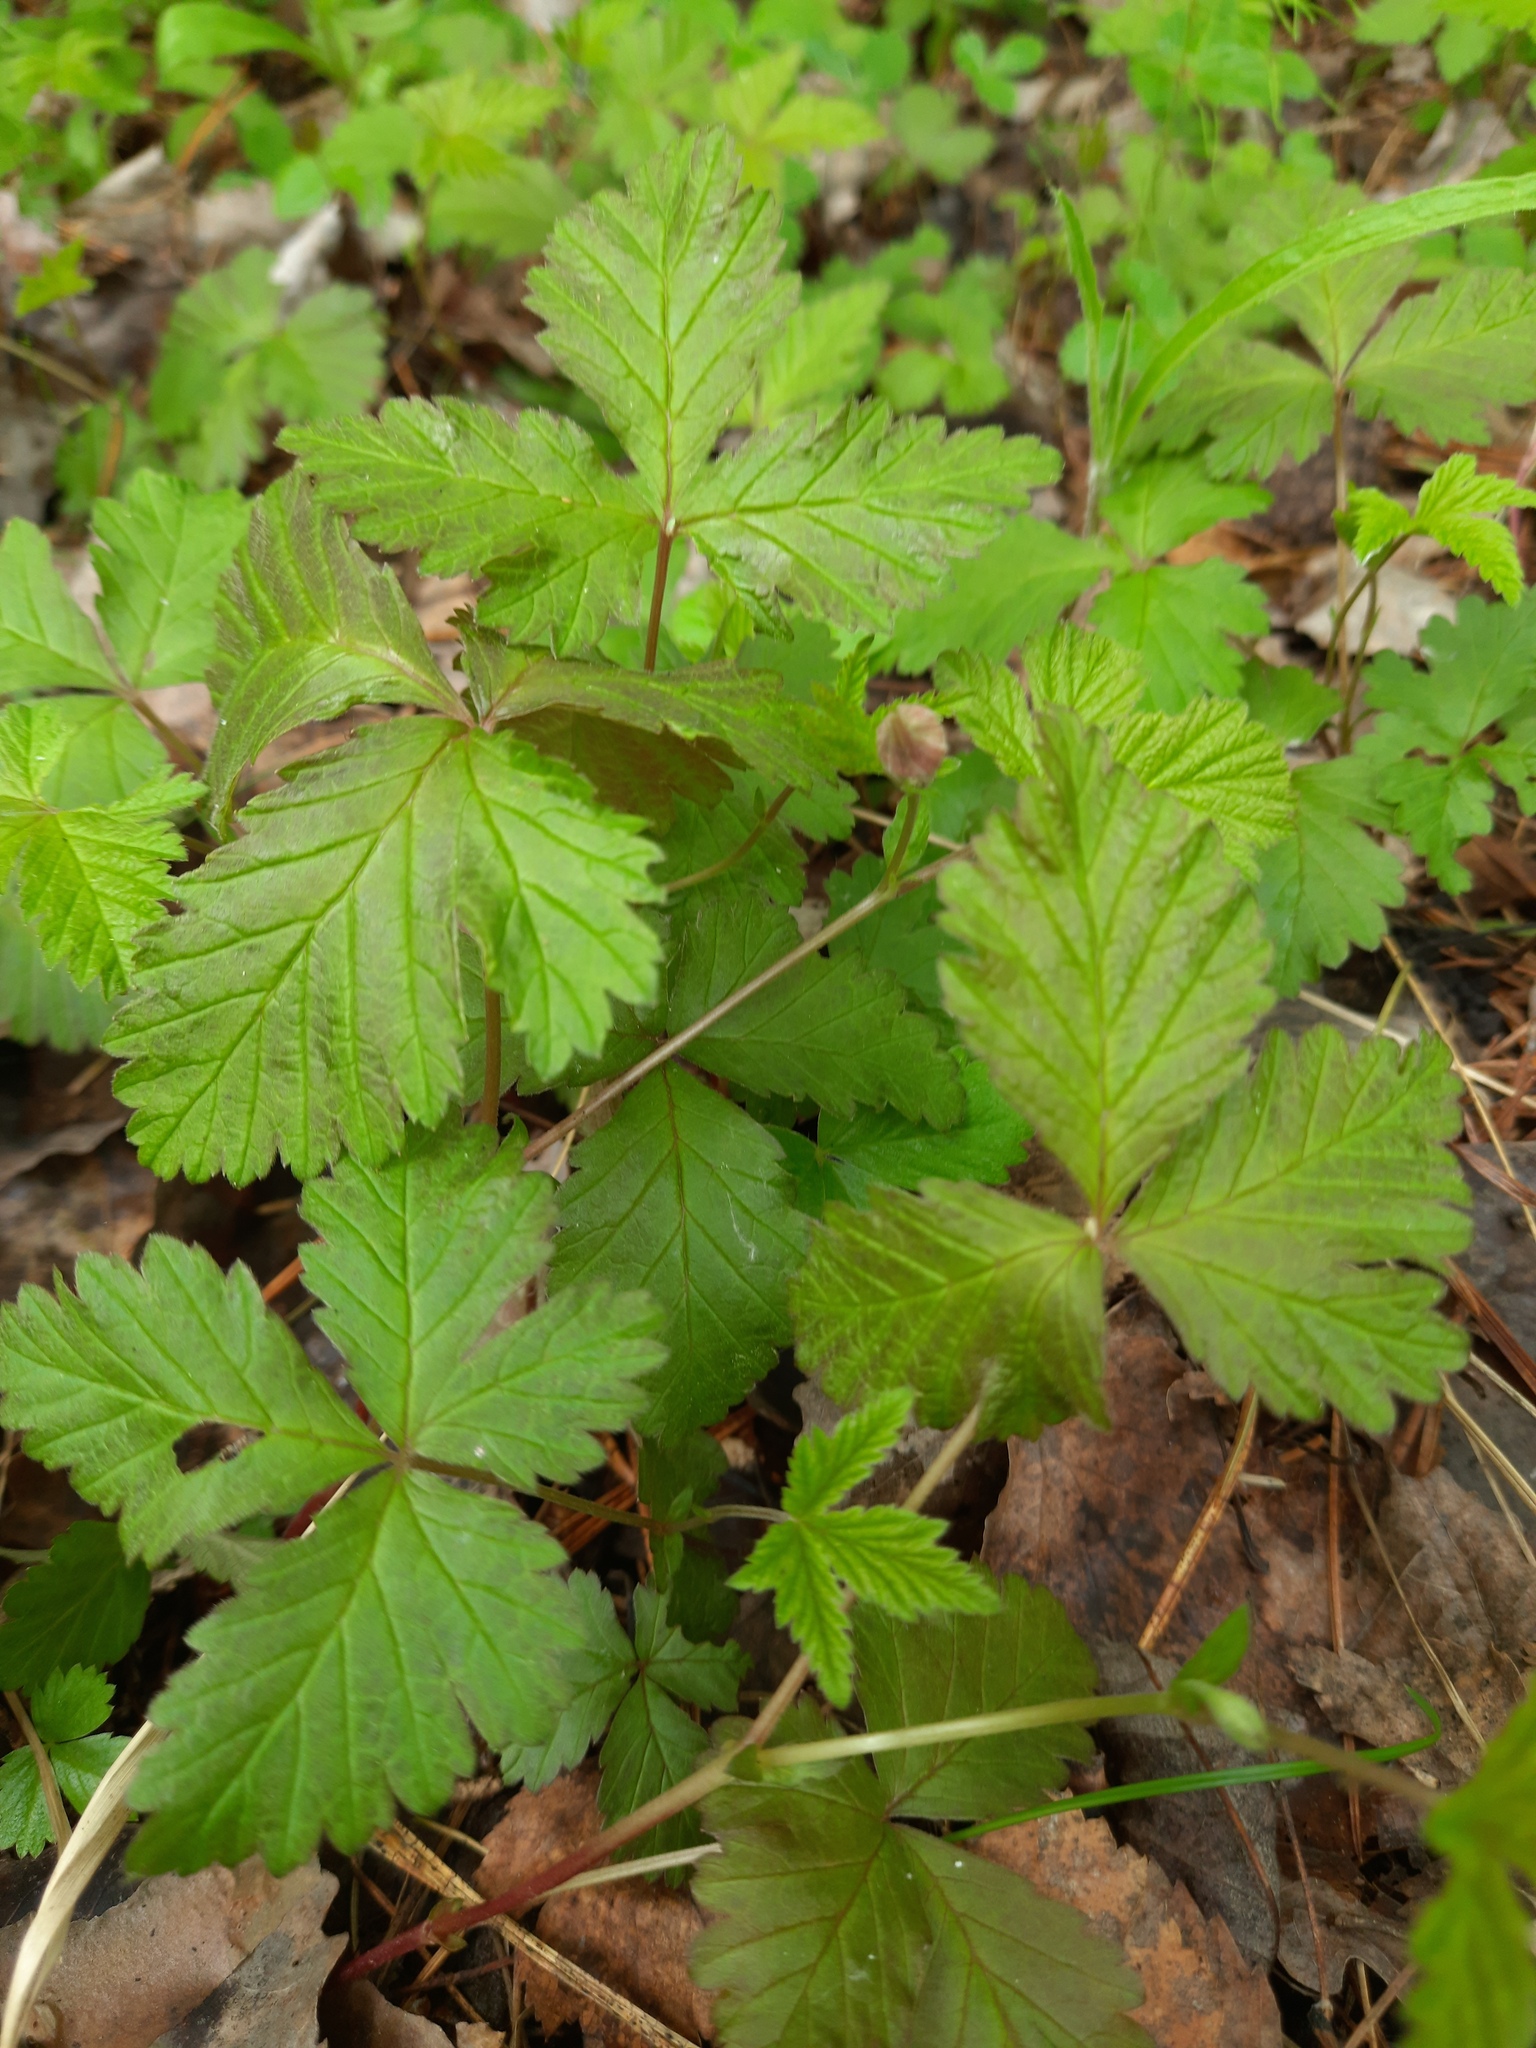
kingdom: Plantae
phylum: Tracheophyta
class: Magnoliopsida
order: Rosales
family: Rosaceae
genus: Rubus
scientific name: Rubus arcticus
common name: Arctic bramble
